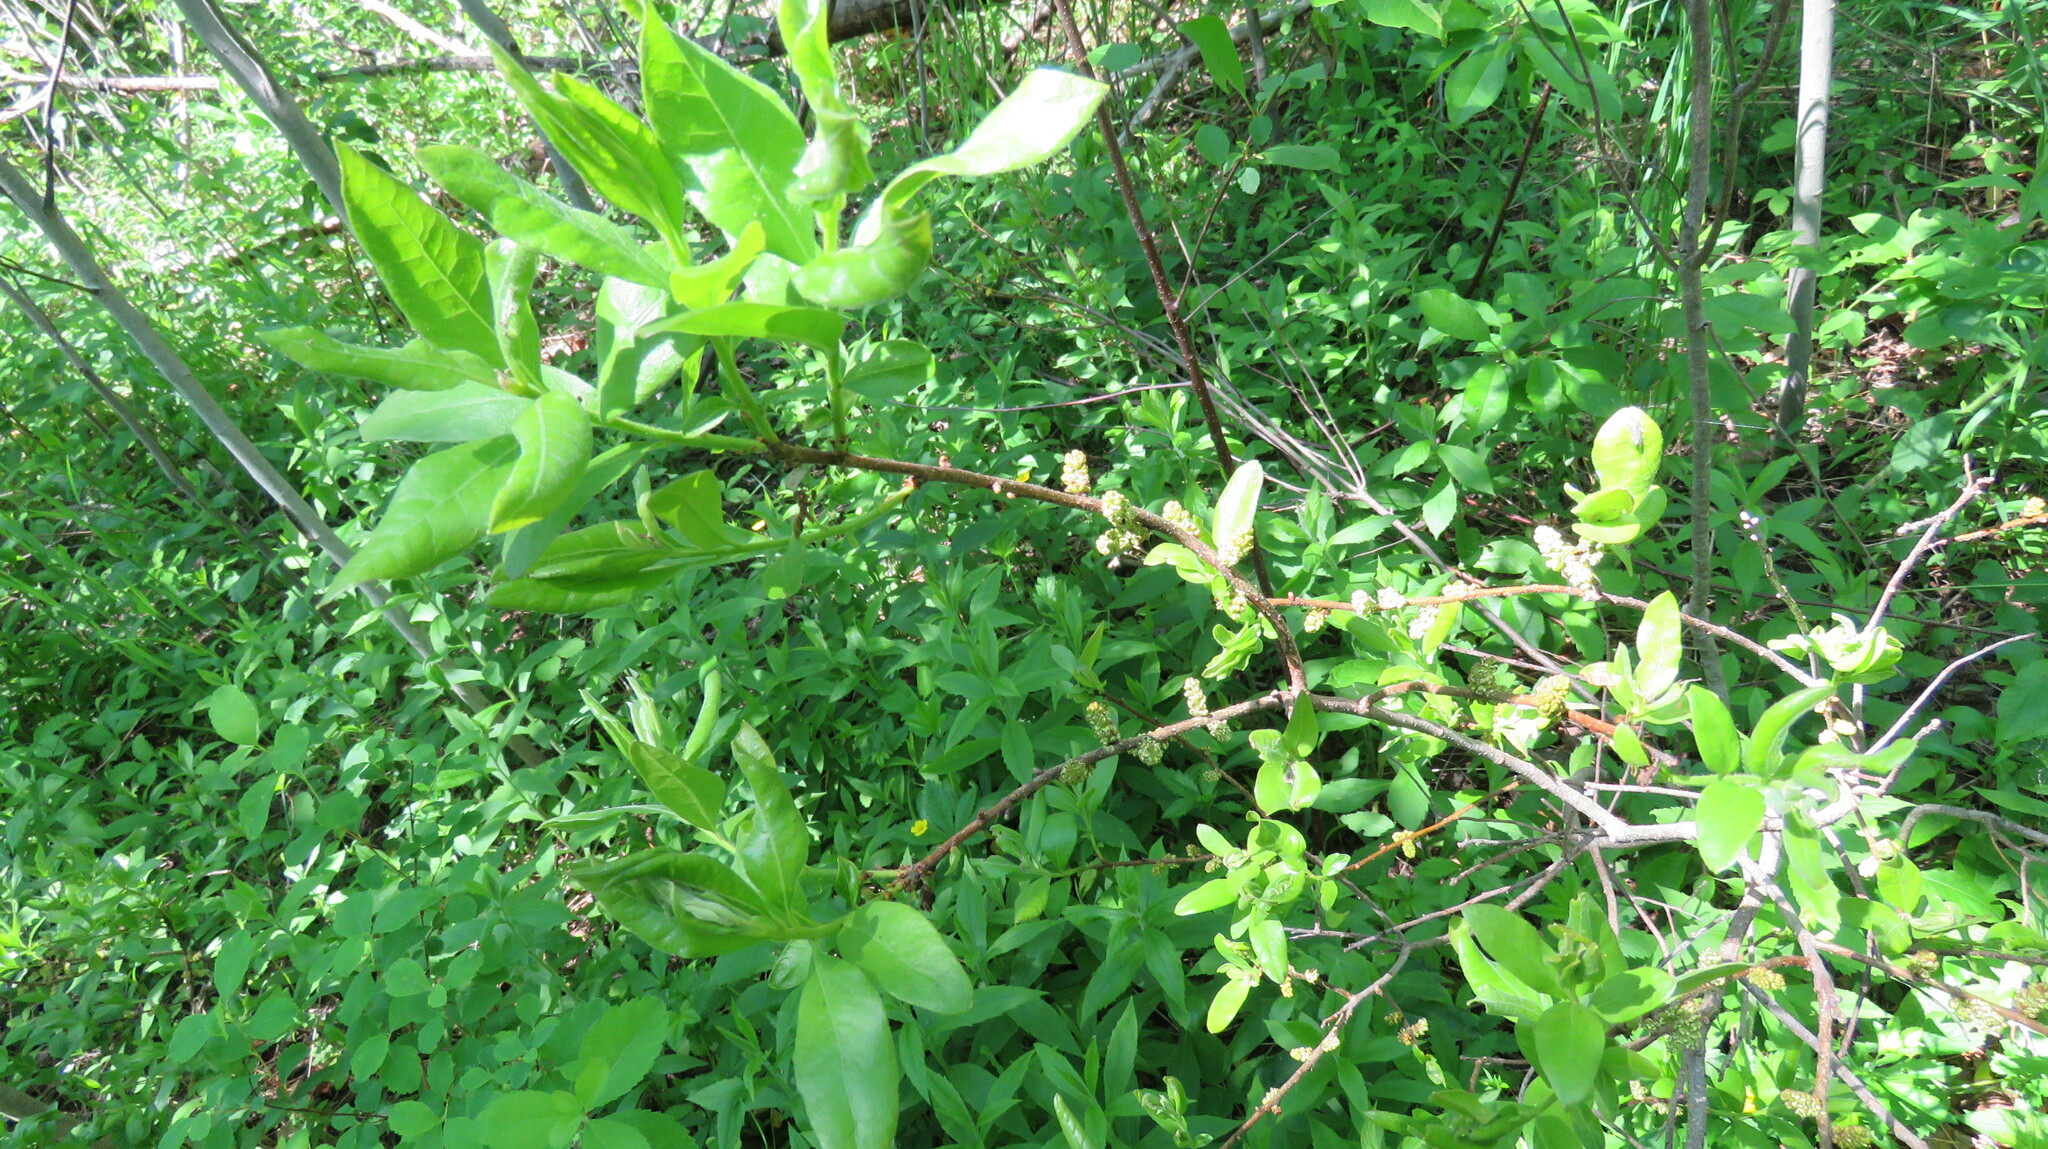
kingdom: Plantae
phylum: Tracheophyta
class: Magnoliopsida
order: Fagales
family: Myricaceae
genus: Morella
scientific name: Morella pensylvanica
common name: Northern bayberry
